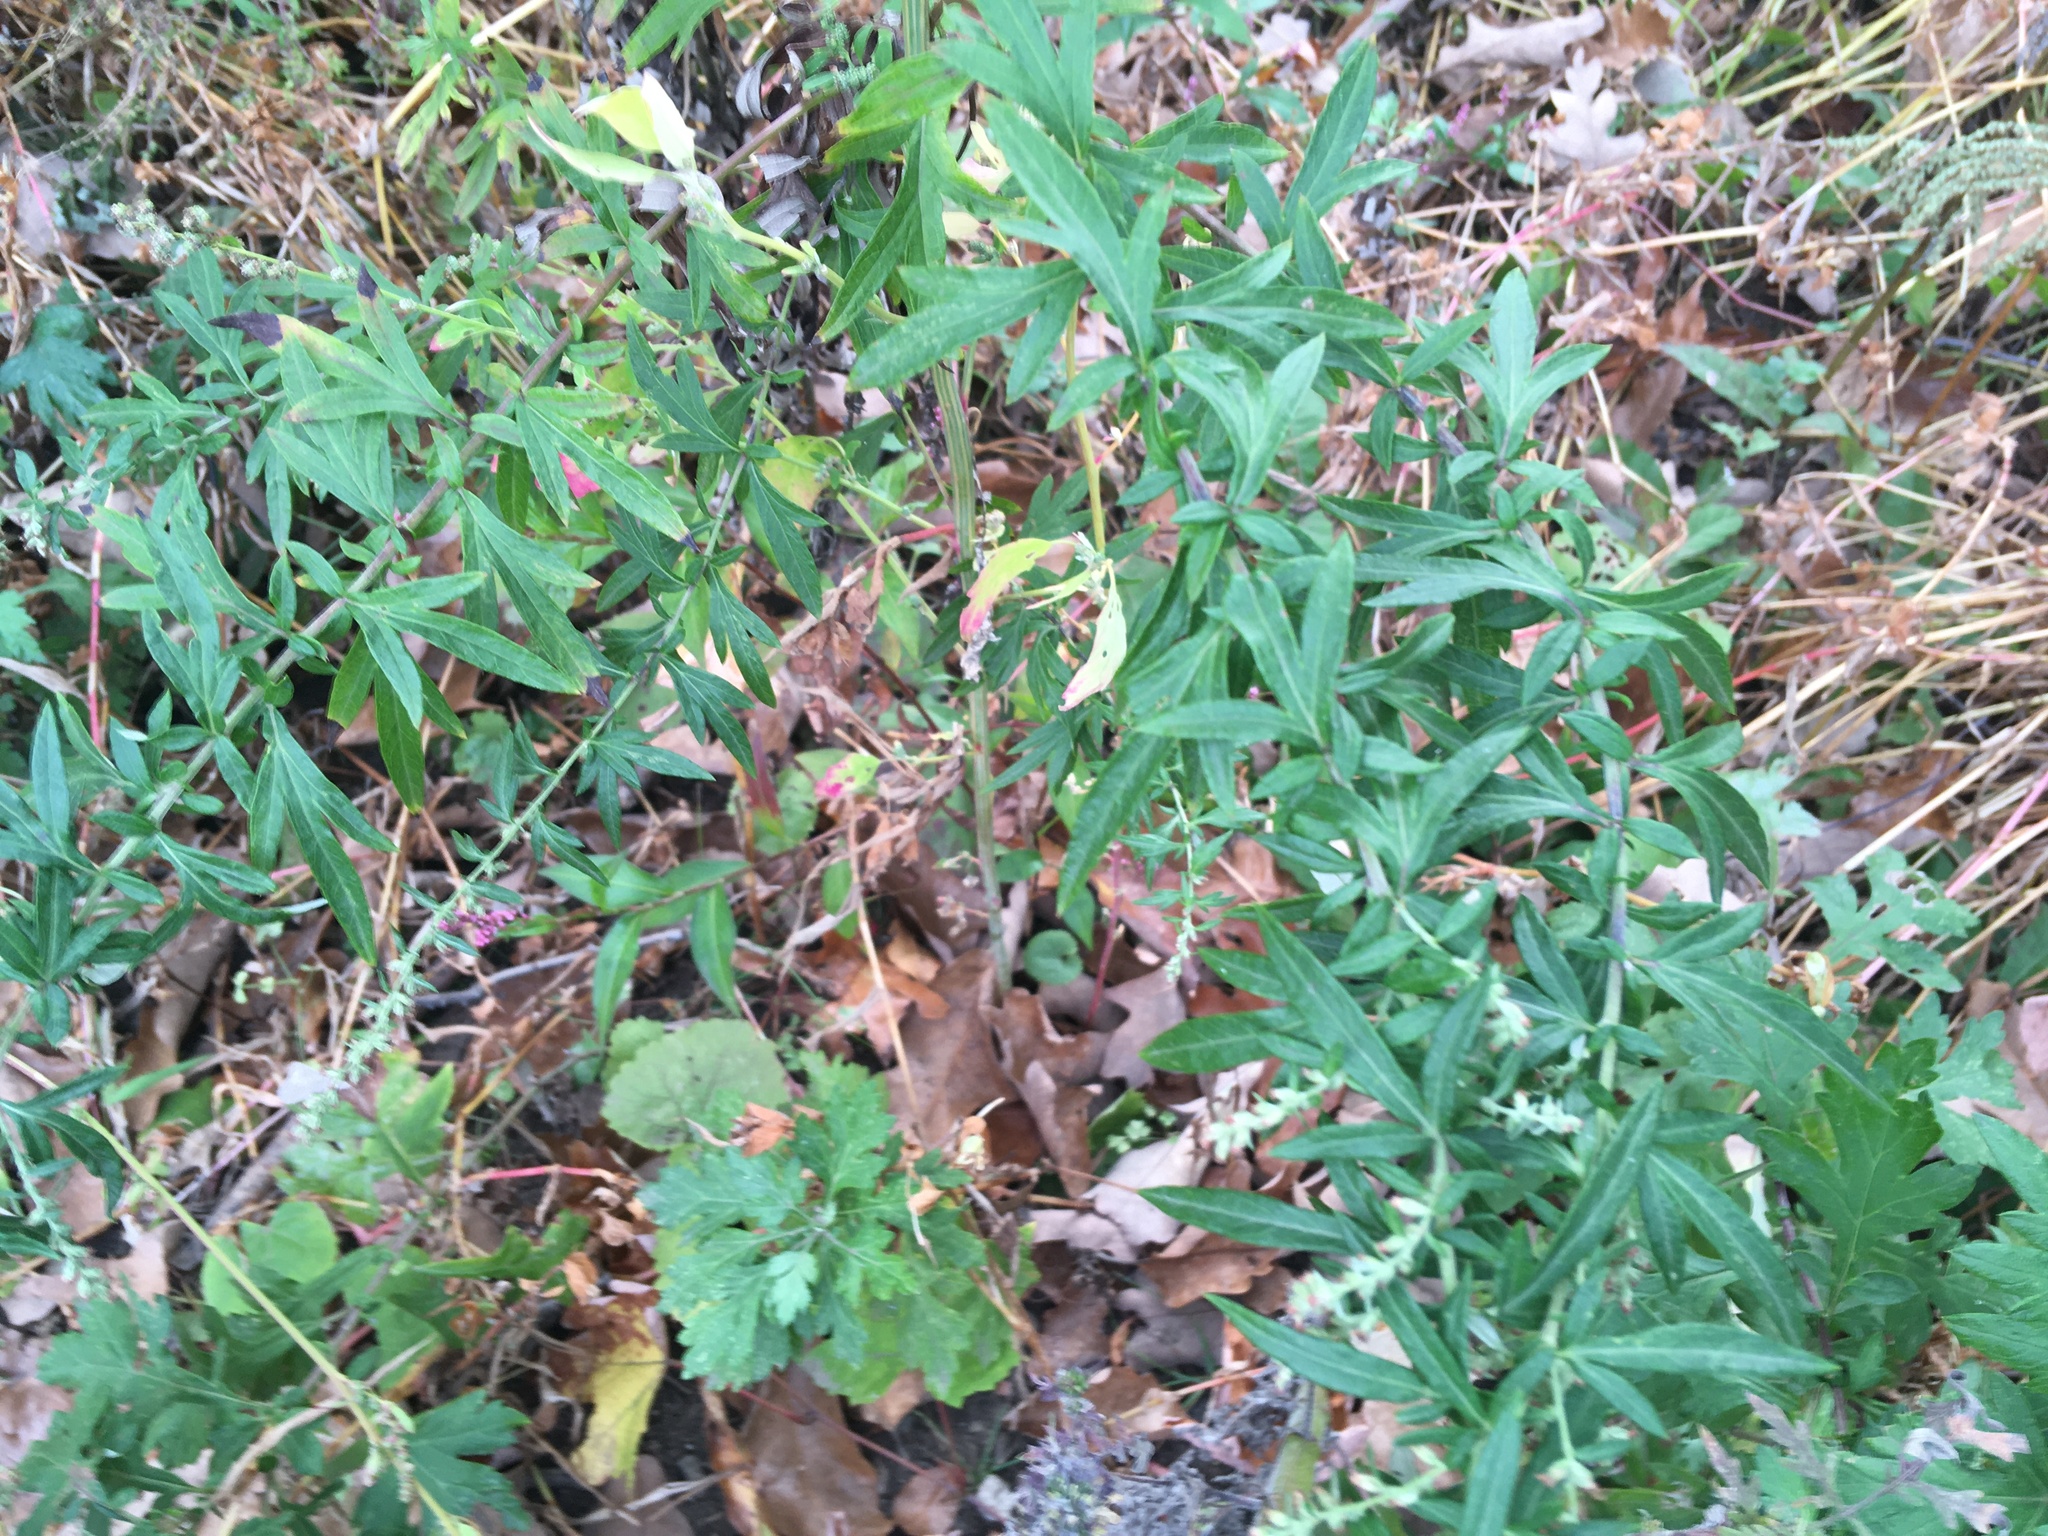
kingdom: Plantae
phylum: Tracheophyta
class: Magnoliopsida
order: Asterales
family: Asteraceae
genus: Artemisia
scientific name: Artemisia vulgaris
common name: Mugwort
